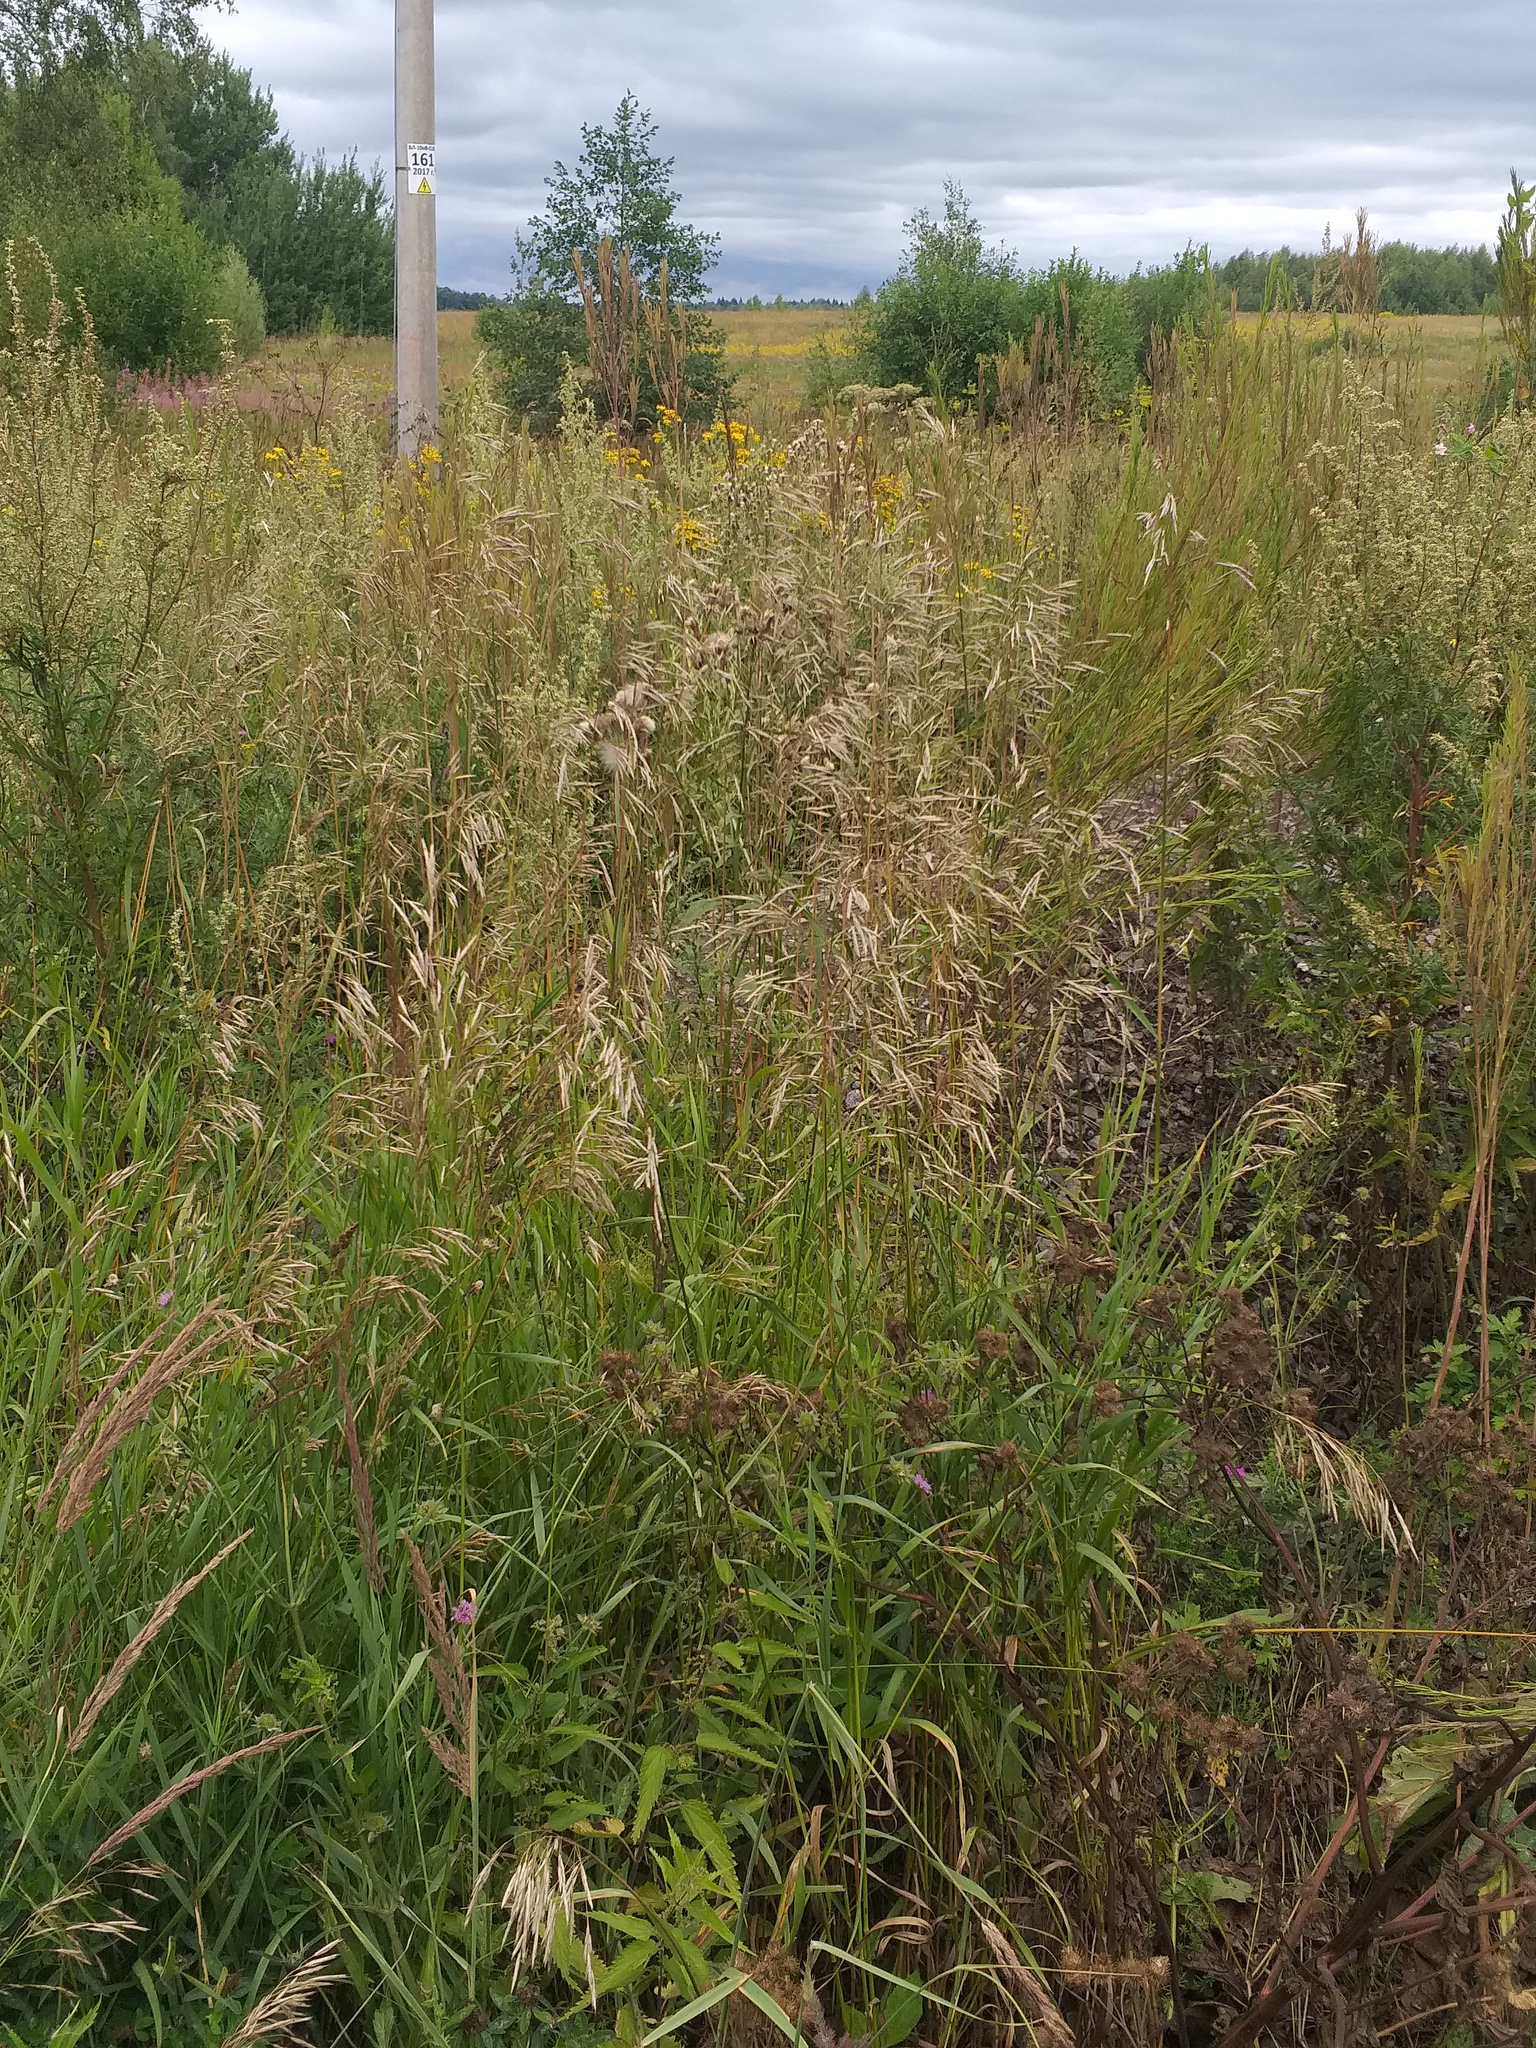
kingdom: Plantae
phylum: Tracheophyta
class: Liliopsida
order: Poales
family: Poaceae
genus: Bromus
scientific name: Bromus inermis
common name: Smooth brome
